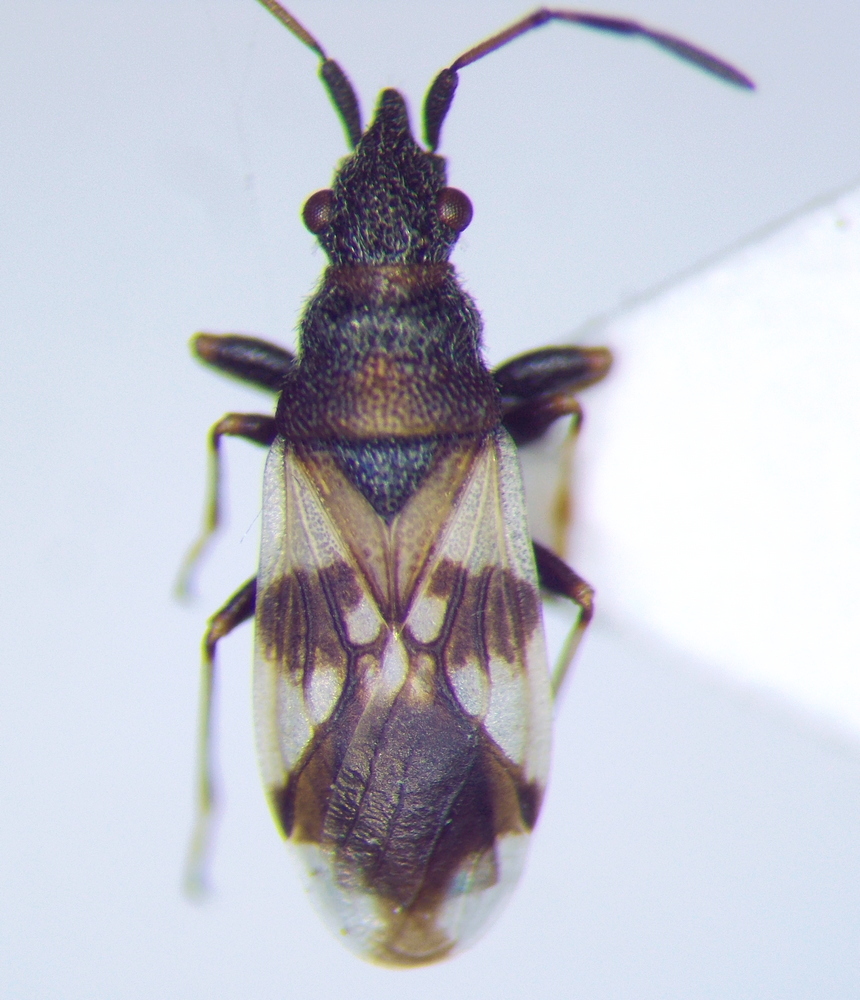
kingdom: Animalia
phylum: Arthropoda
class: Insecta
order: Hemiptera
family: Oxycarenidae
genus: Macroplax
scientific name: Macroplax fasciata
